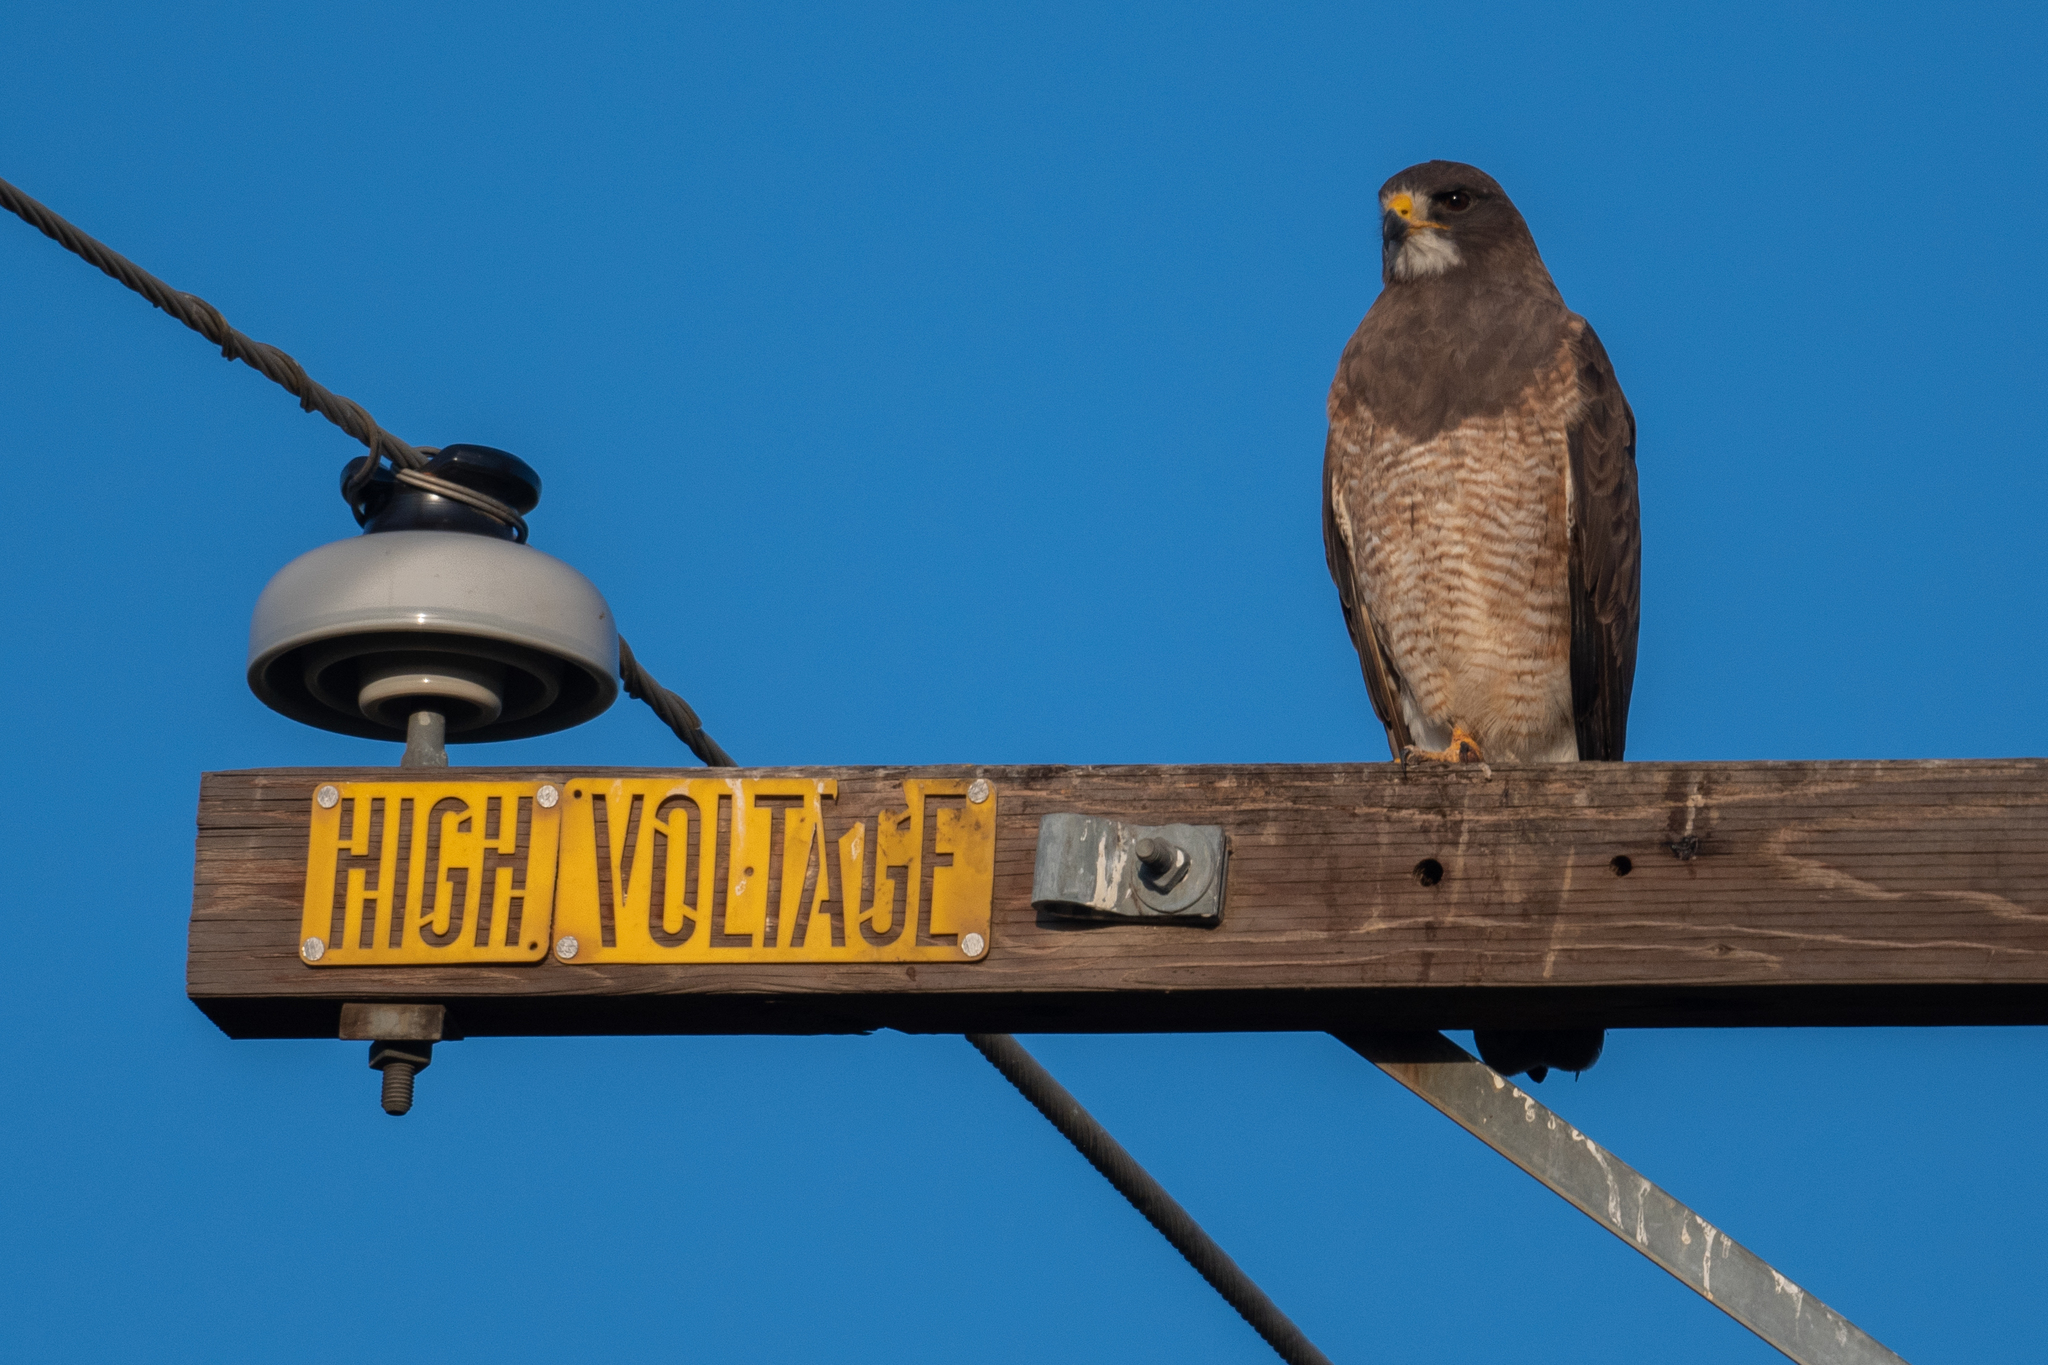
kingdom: Animalia
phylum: Chordata
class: Aves
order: Accipitriformes
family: Accipitridae
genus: Buteo
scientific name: Buteo swainsoni
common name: Swainson's hawk
